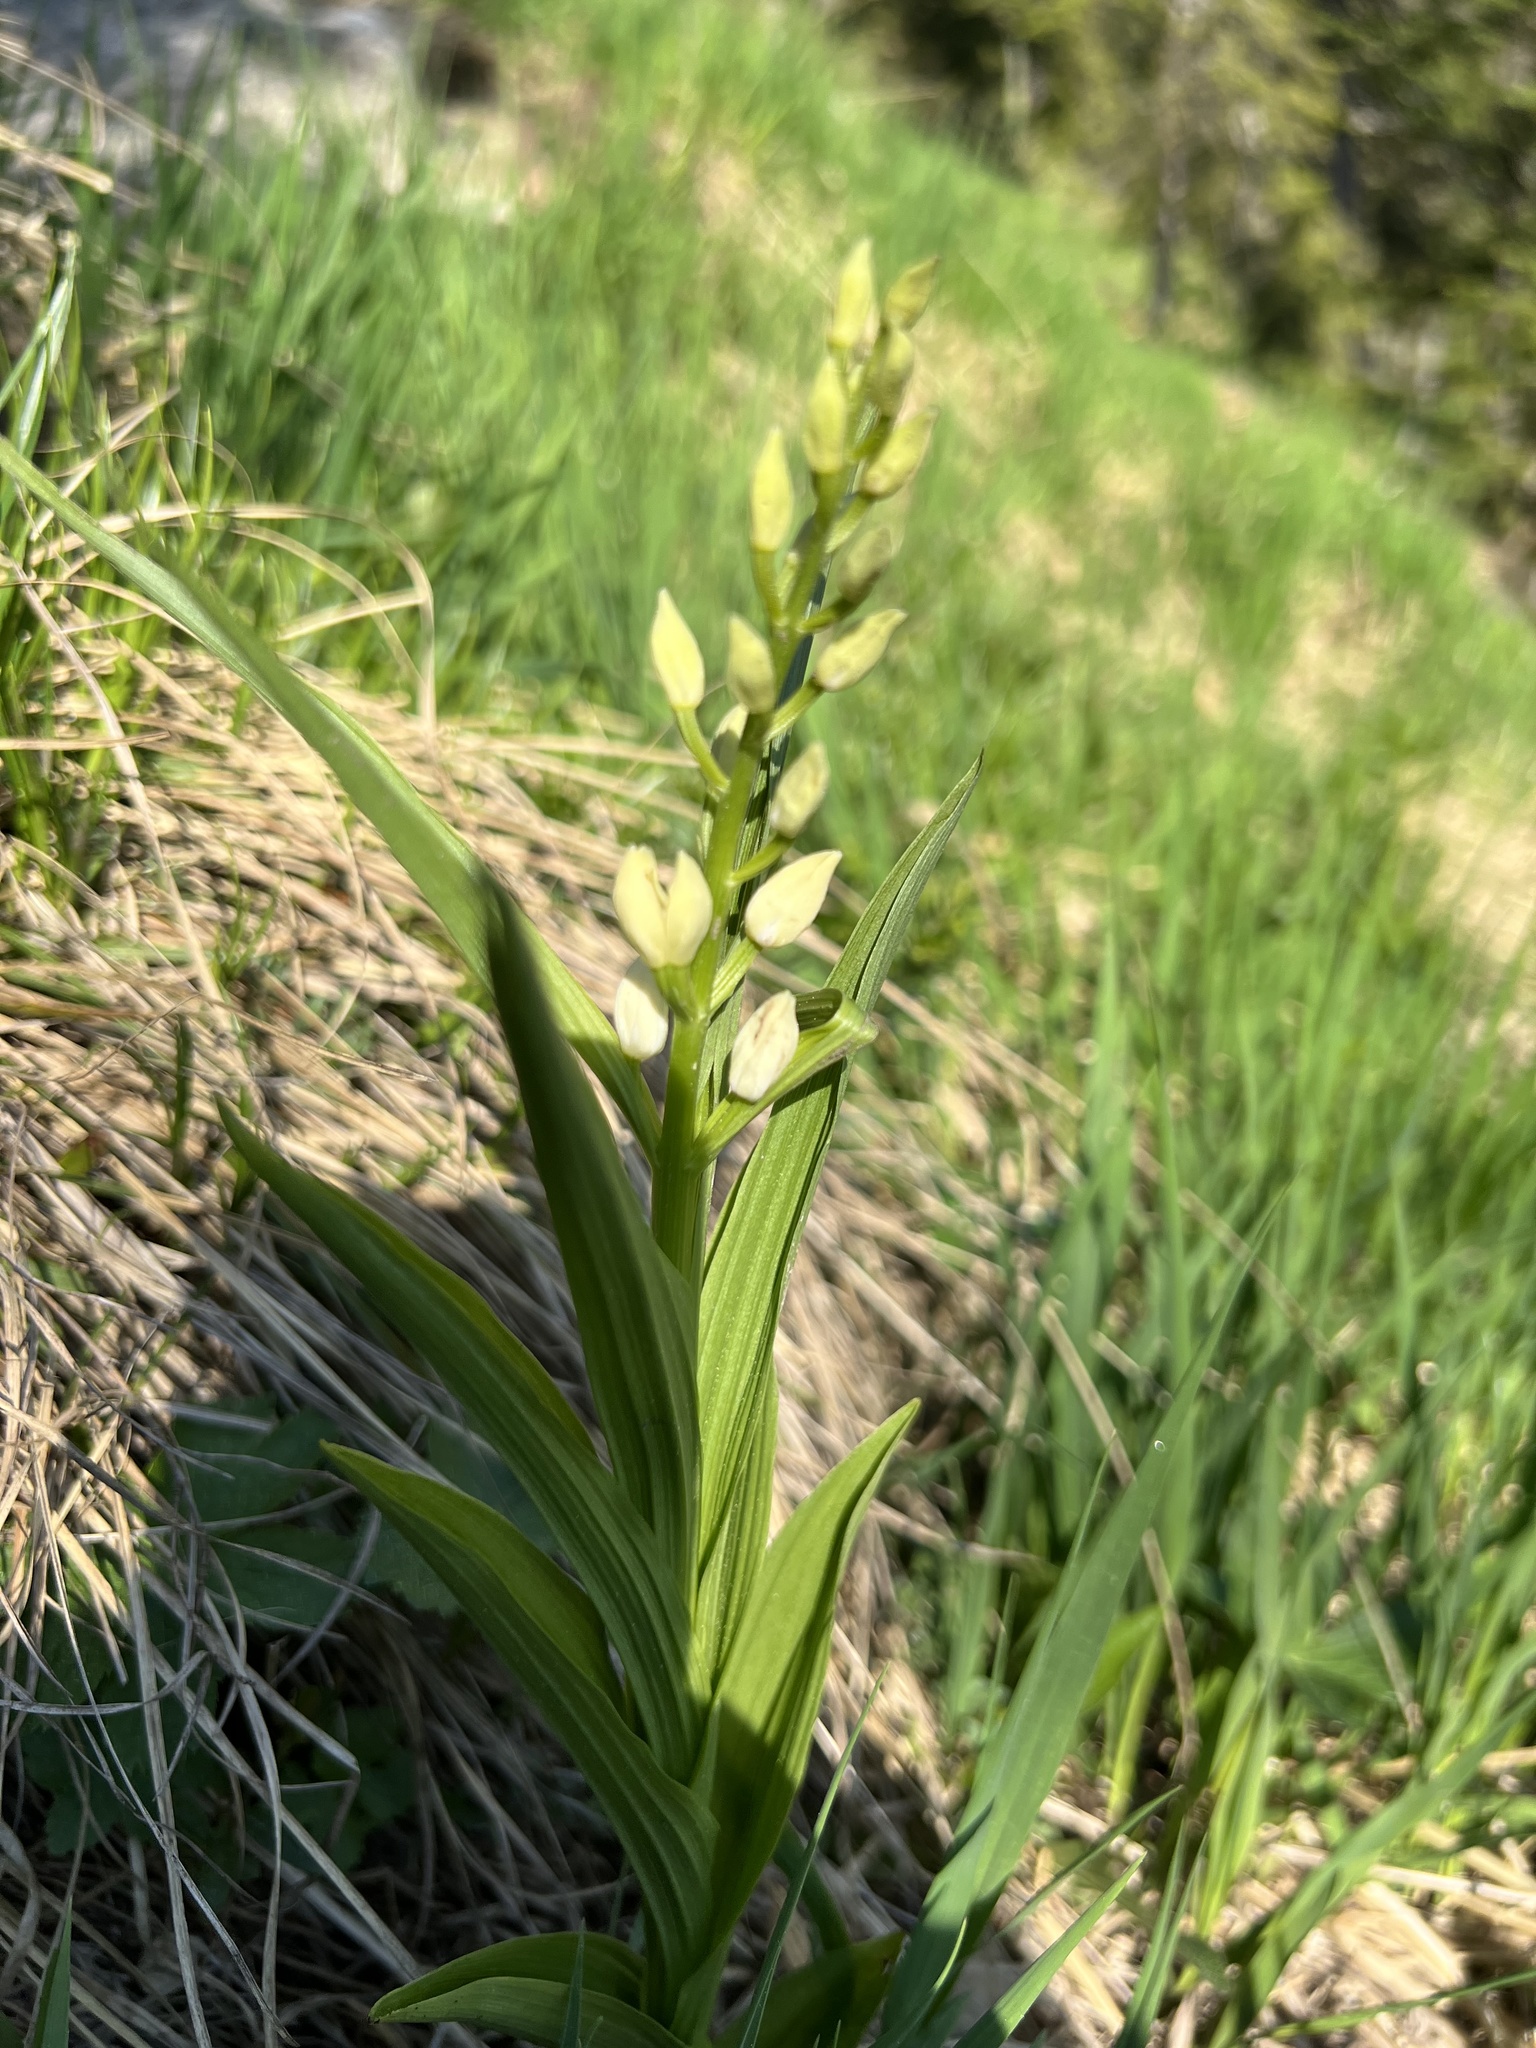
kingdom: Plantae
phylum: Tracheophyta
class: Liliopsida
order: Asparagales
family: Orchidaceae
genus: Cephalanthera
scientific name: Cephalanthera longifolia
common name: Narrow-leaved helleborine
